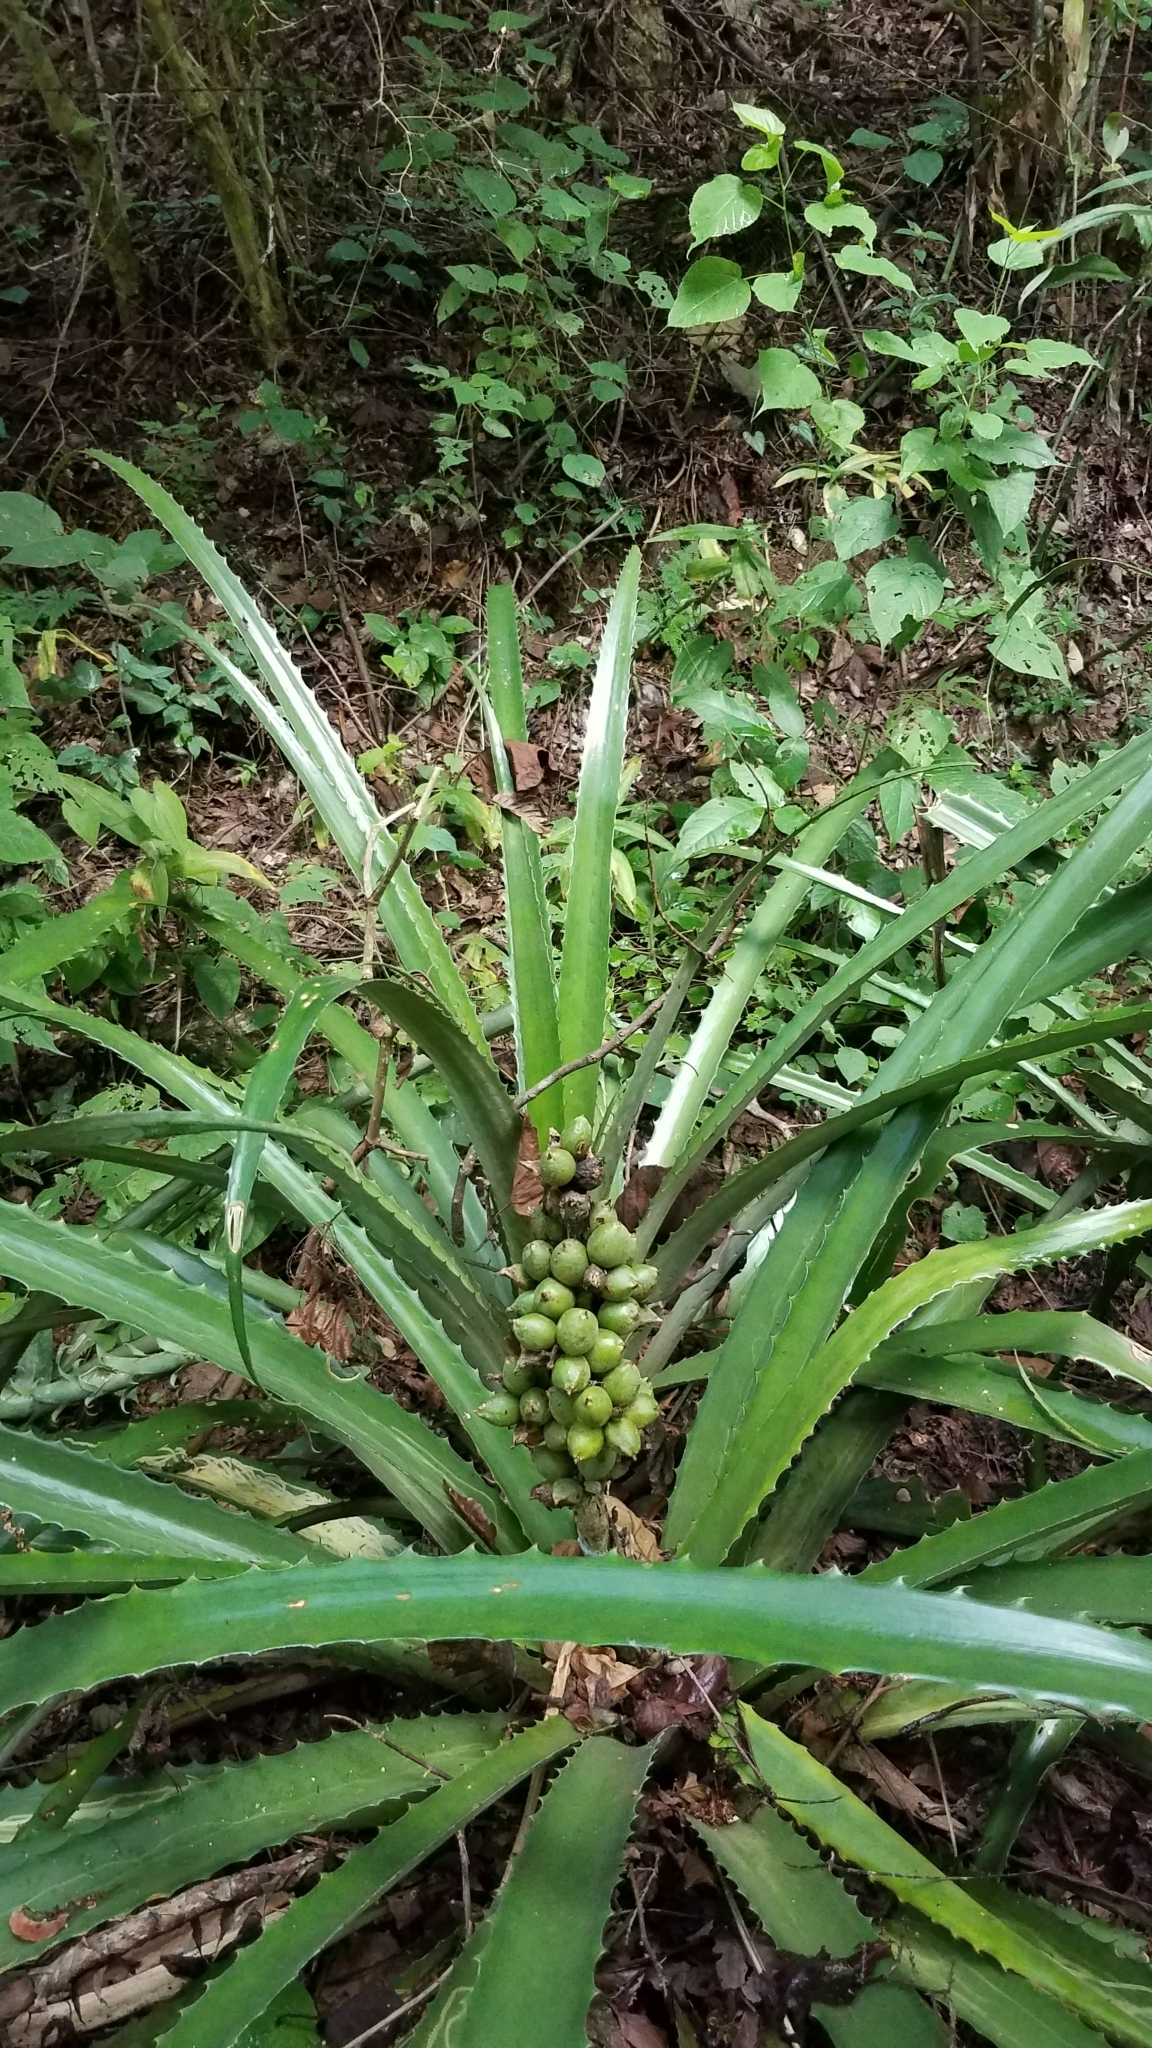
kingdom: Plantae
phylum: Tracheophyta
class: Liliopsida
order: Poales
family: Bromeliaceae
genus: Bromelia
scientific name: Bromelia pinguin
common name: Pinguin
